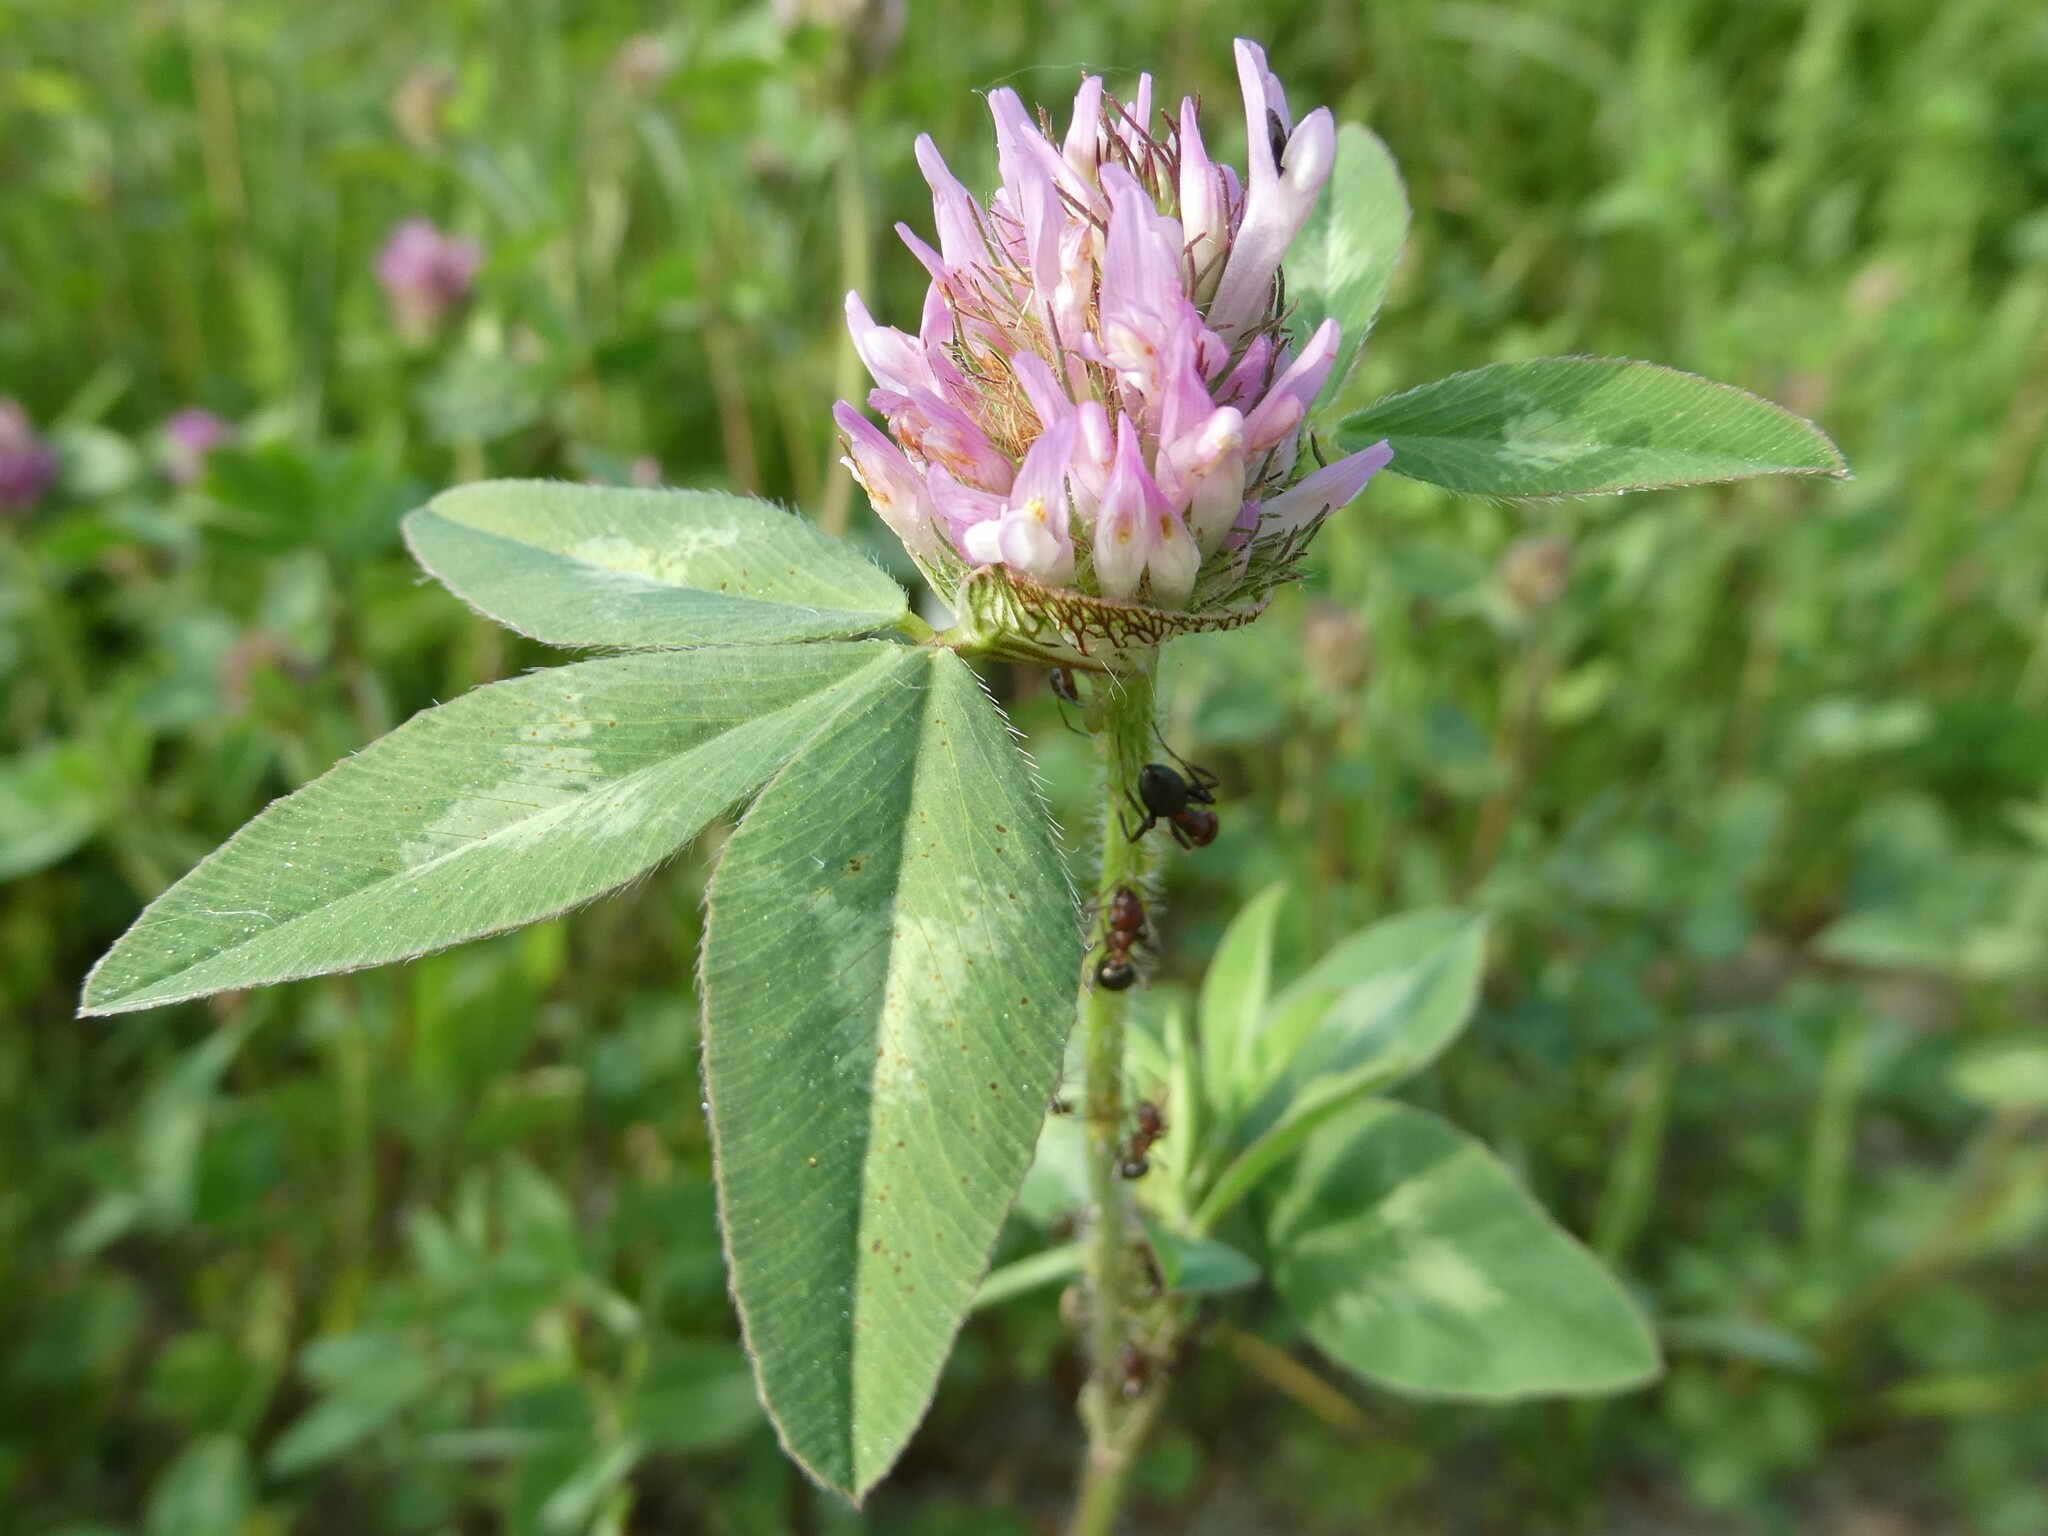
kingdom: Plantae
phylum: Tracheophyta
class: Magnoliopsida
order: Fabales
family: Fabaceae
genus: Trifolium
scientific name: Trifolium pratense
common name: Red clover
